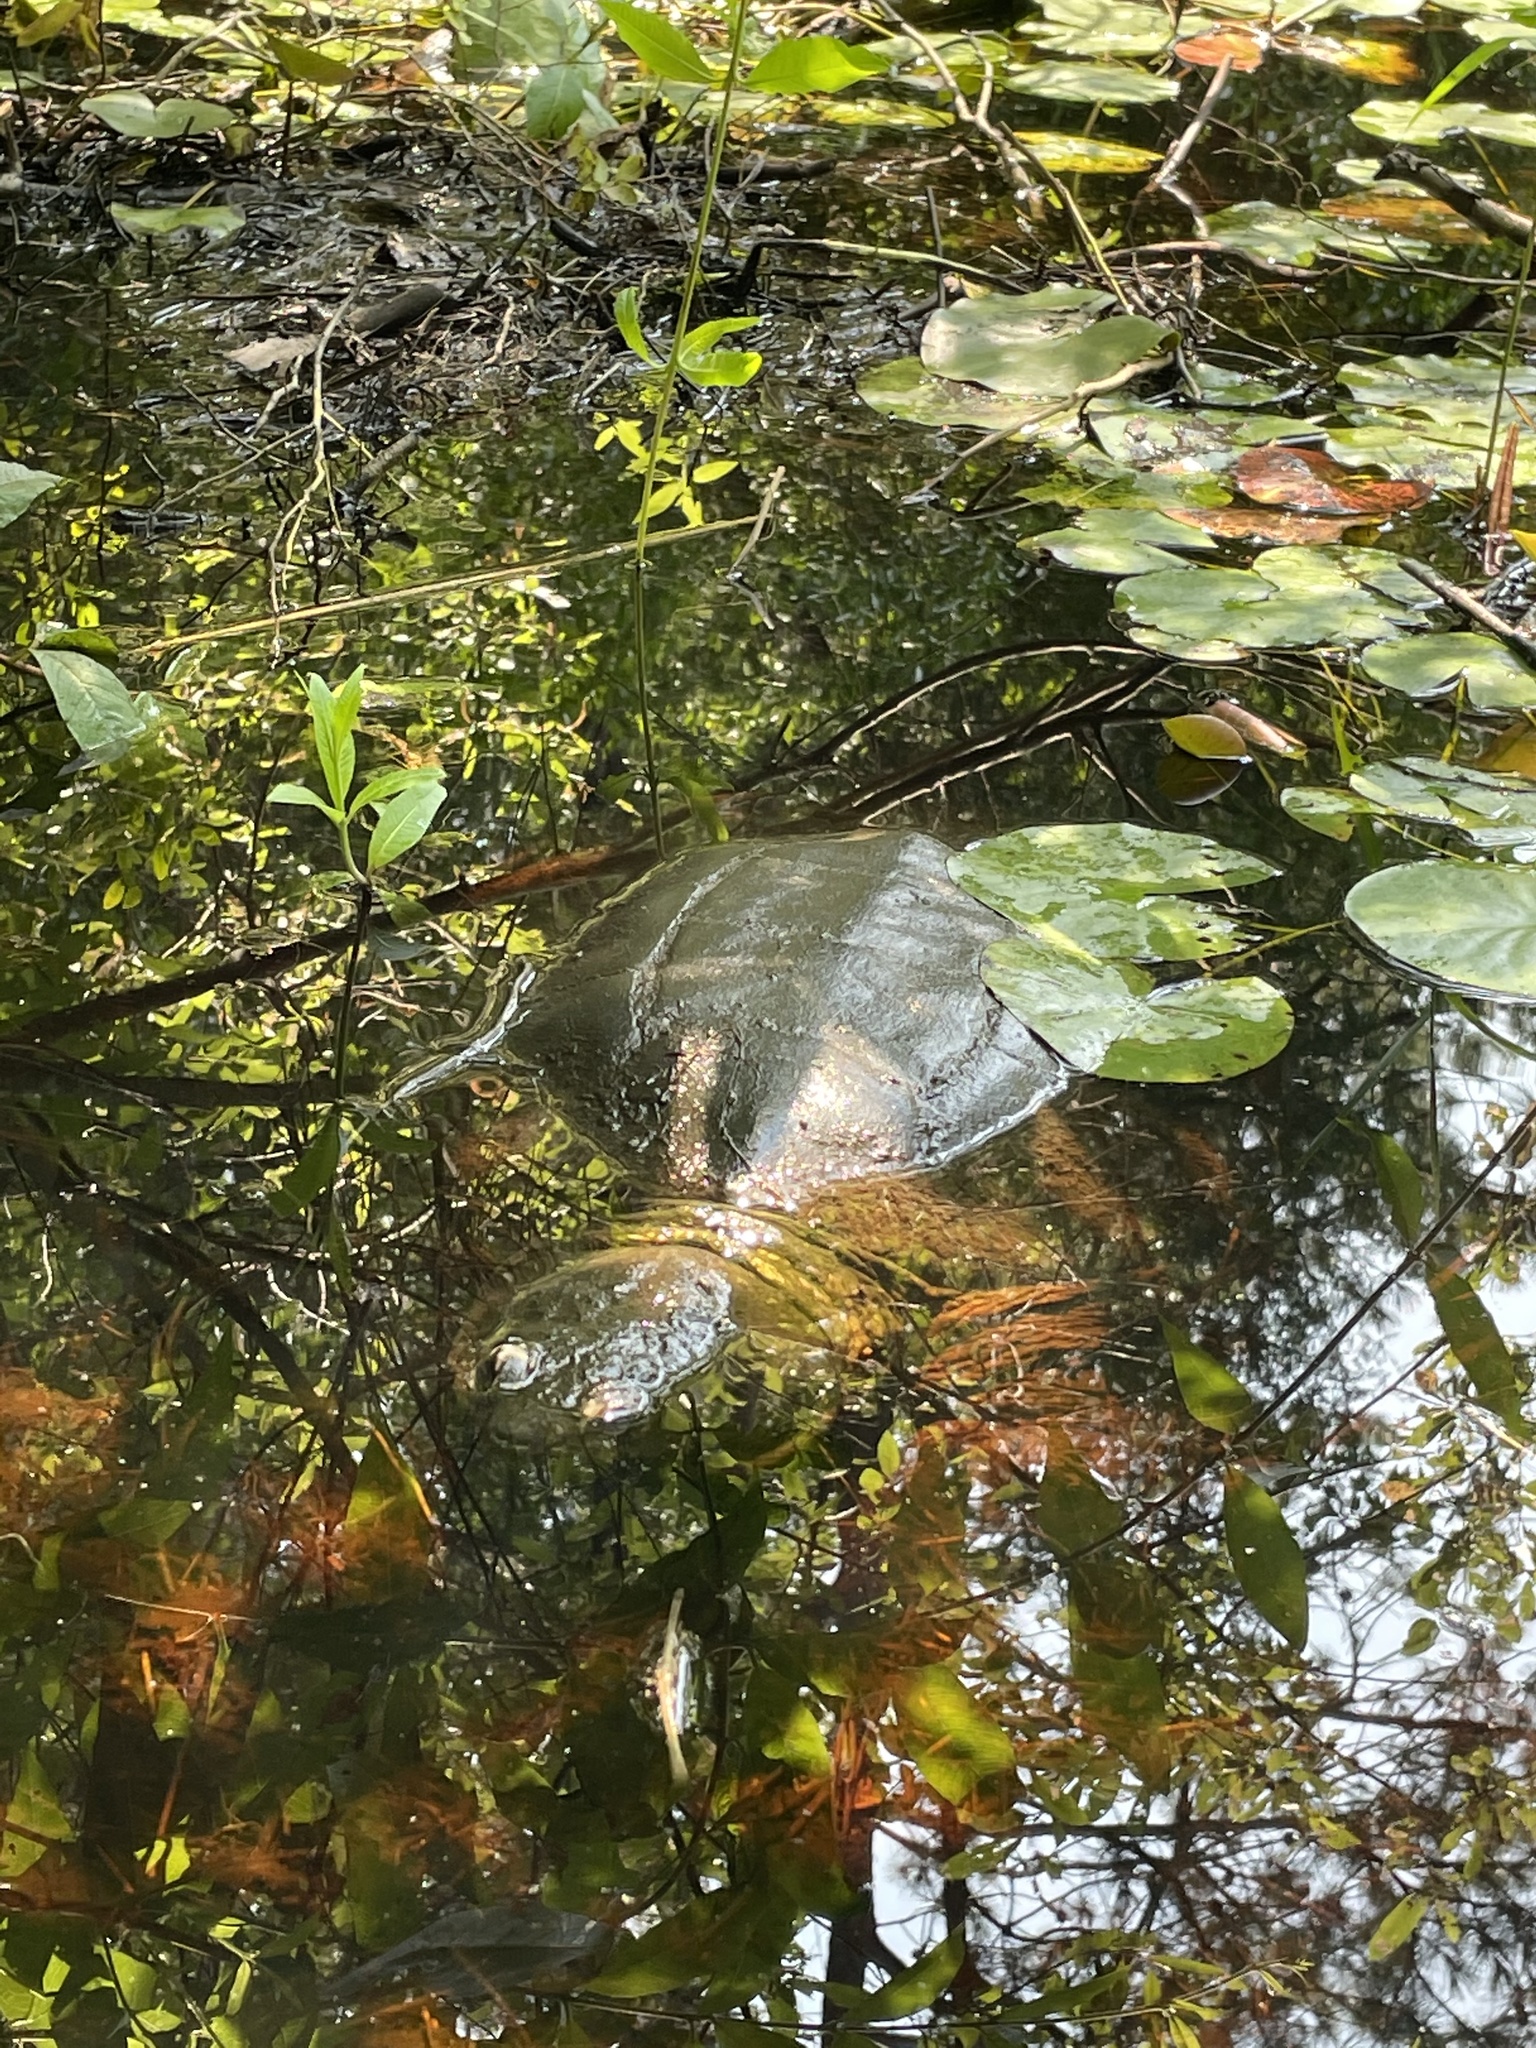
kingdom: Animalia
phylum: Chordata
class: Testudines
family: Chelydridae
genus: Chelydra
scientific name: Chelydra serpentina
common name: Common snapping turtle
